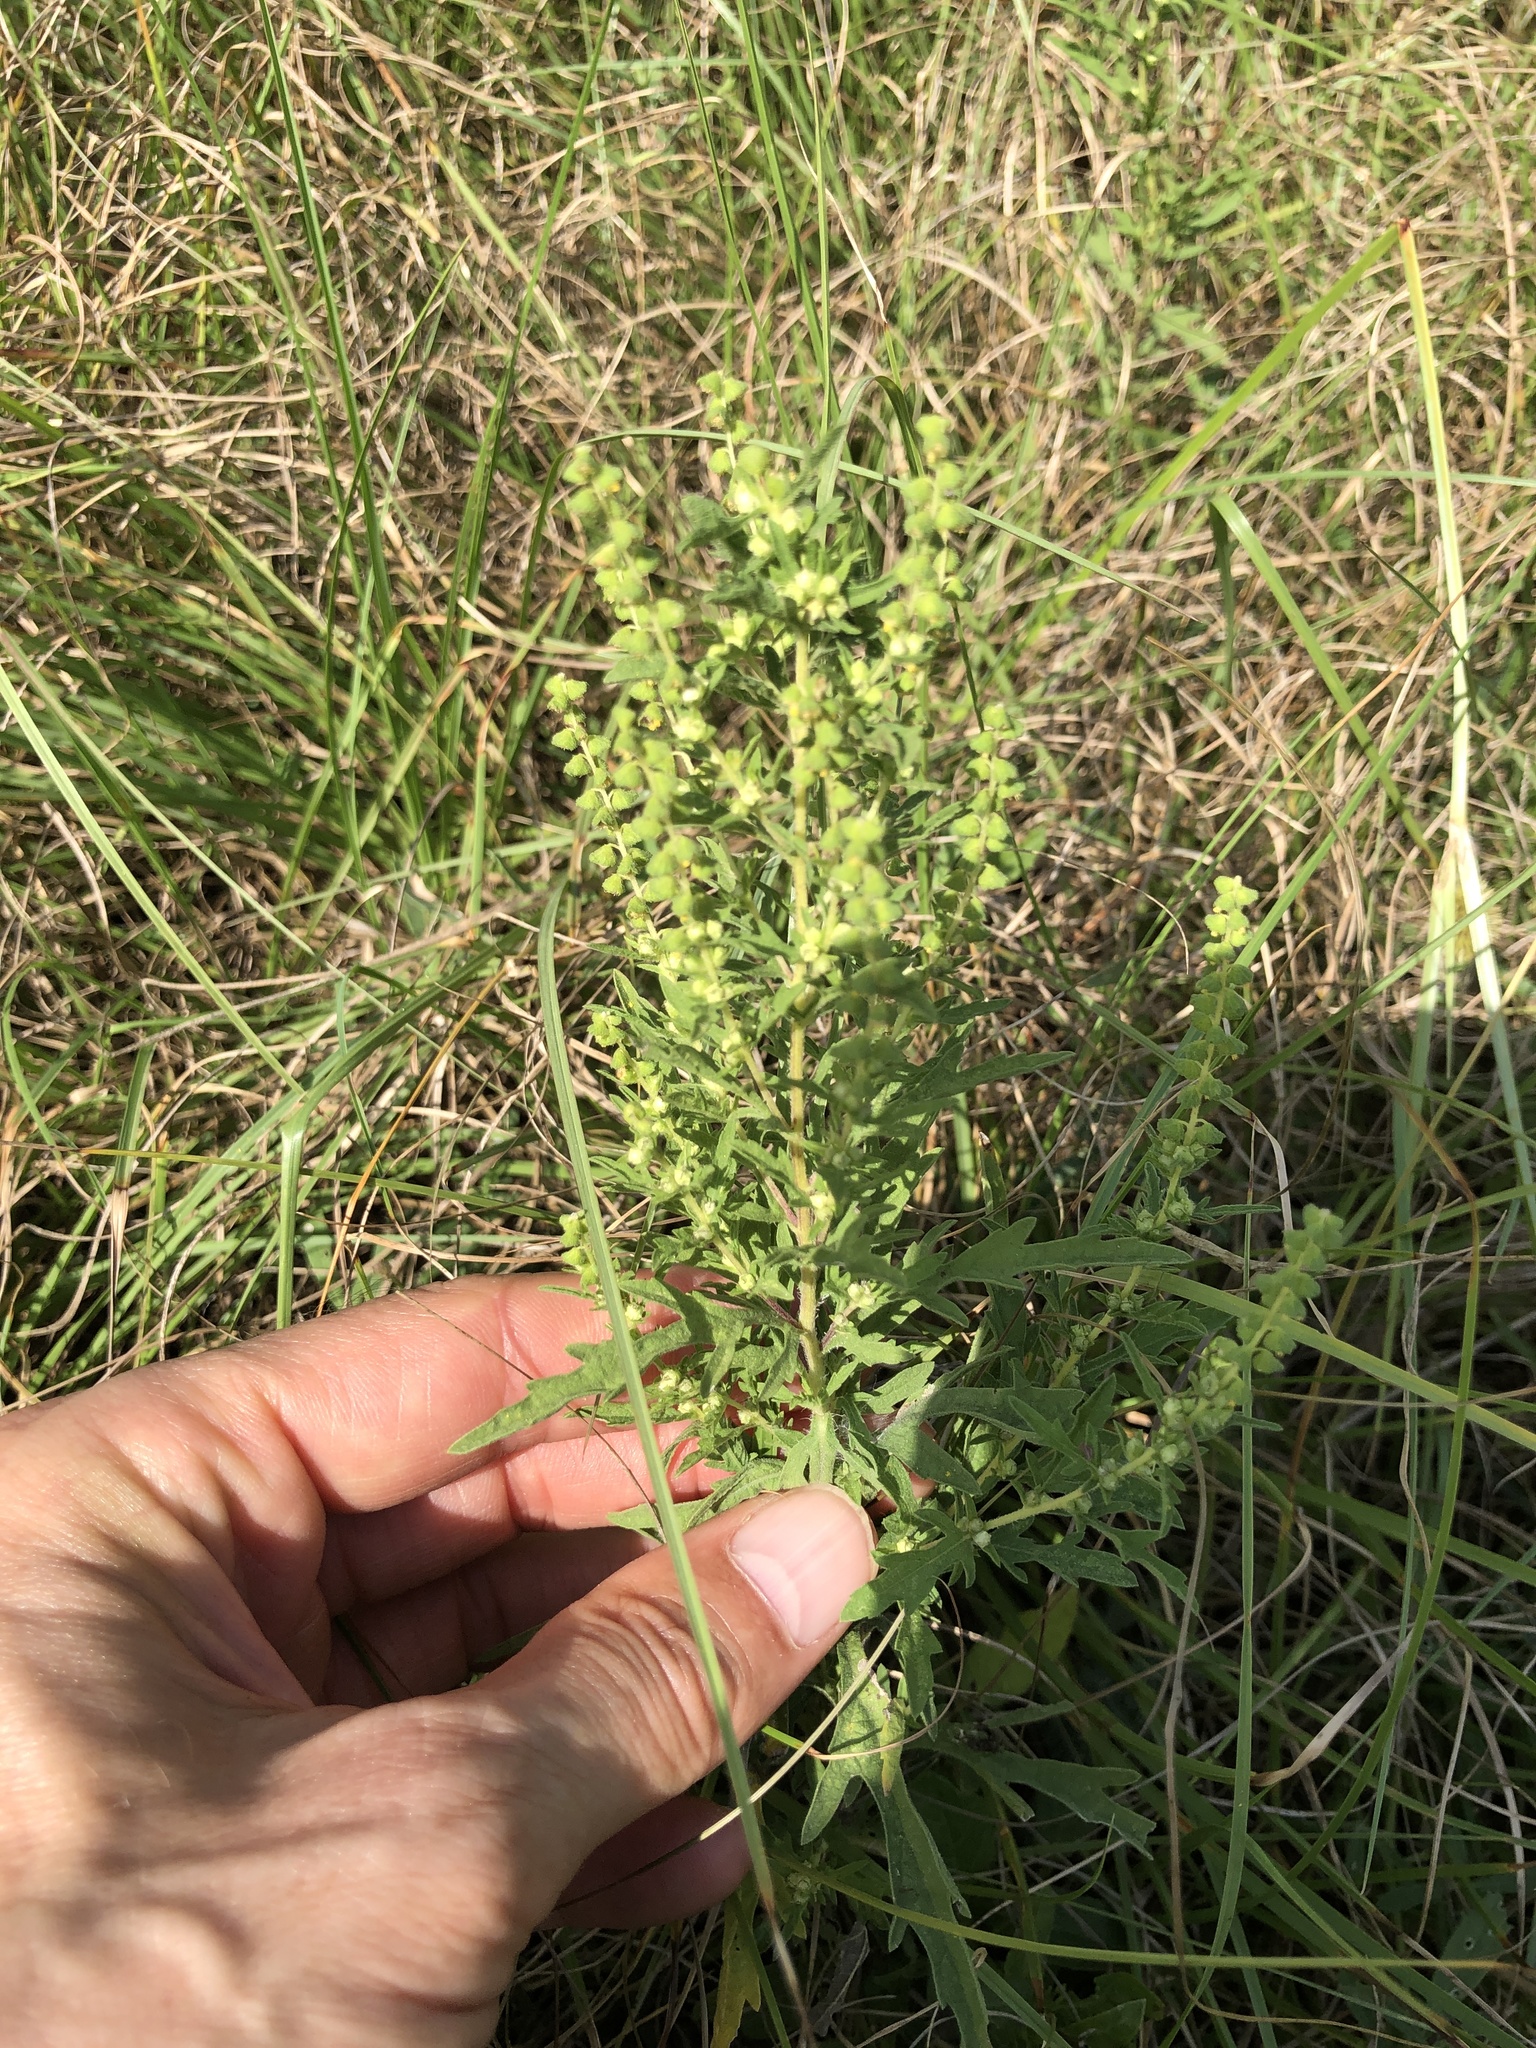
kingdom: Plantae
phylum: Tracheophyta
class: Magnoliopsida
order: Asterales
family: Asteraceae
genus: Ambrosia
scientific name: Ambrosia psilostachya
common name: Perennial ragweed
